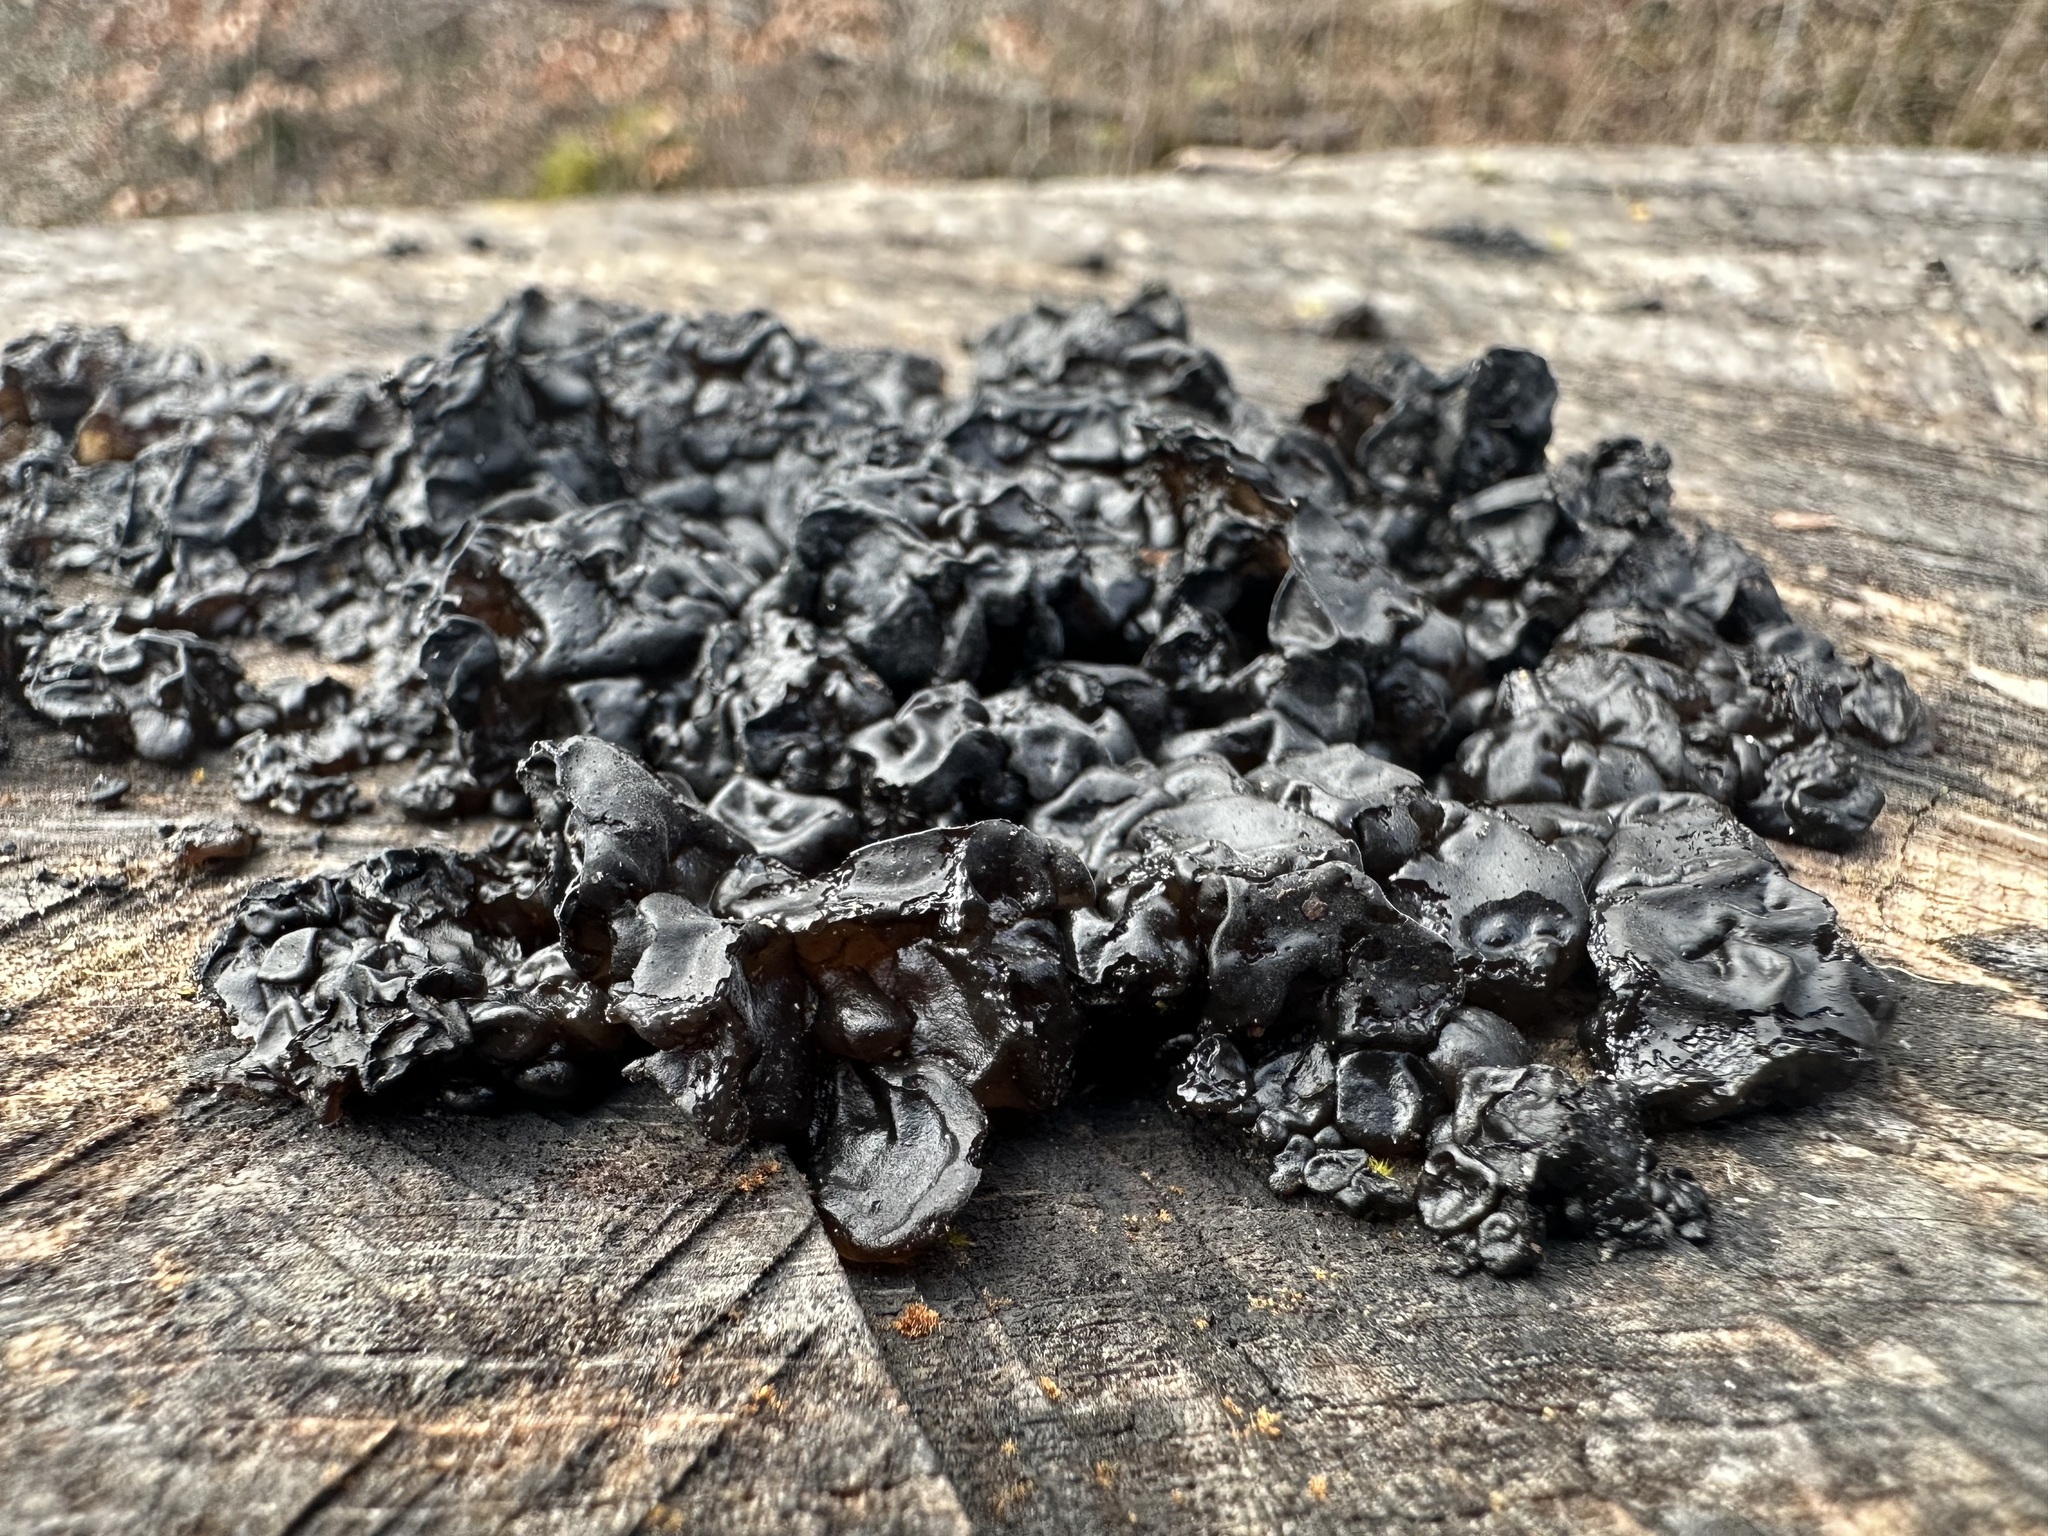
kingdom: Fungi
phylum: Basidiomycota
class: Agaricomycetes
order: Auriculariales
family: Auriculariaceae
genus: Exidia
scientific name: Exidia nigricans
